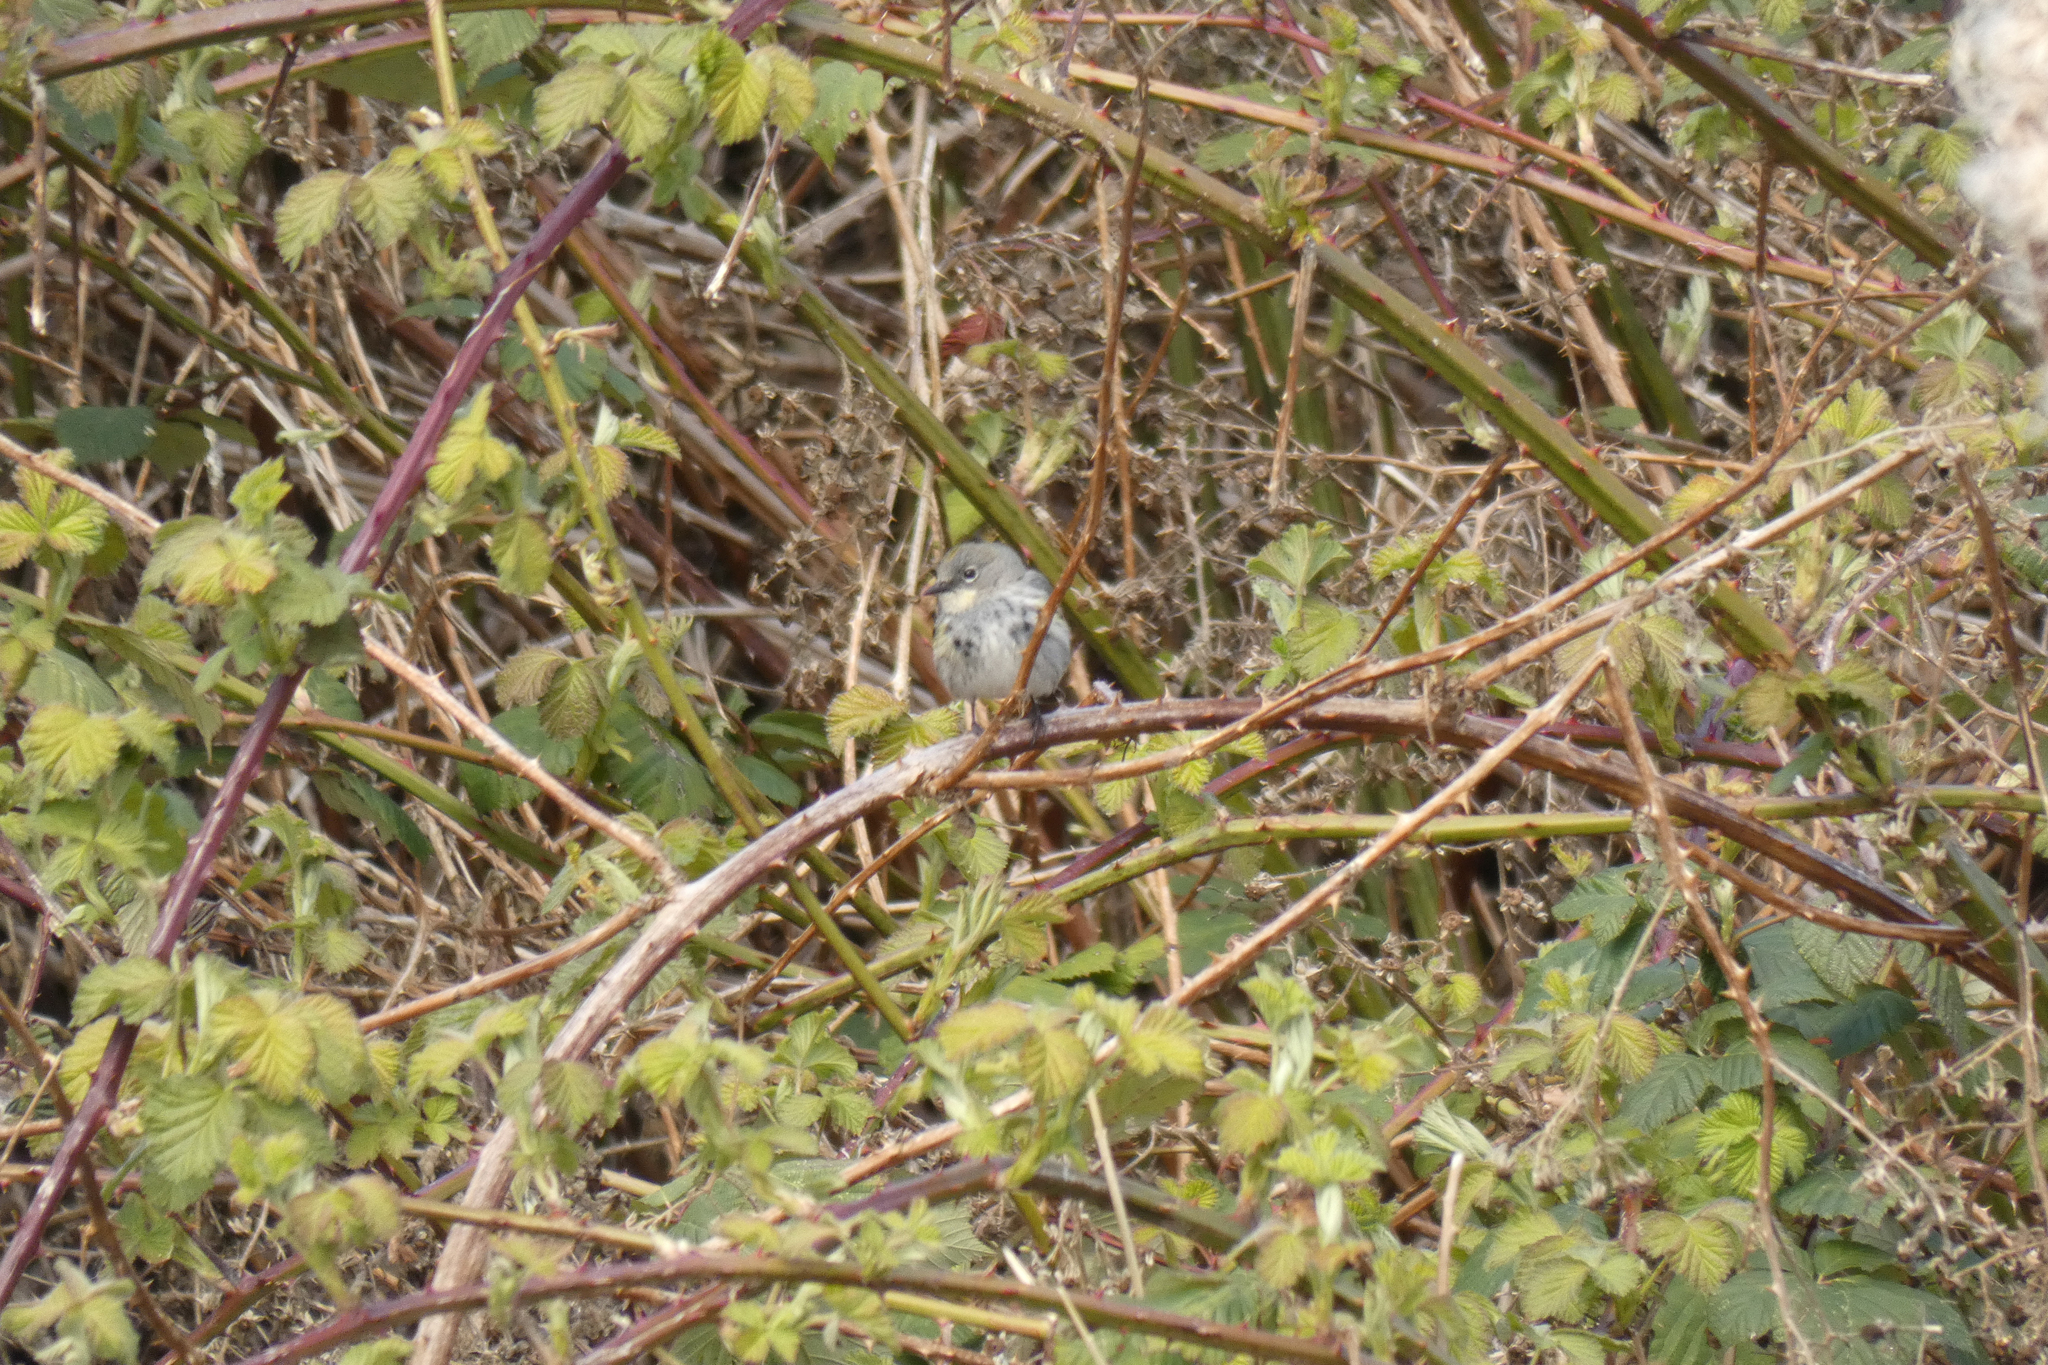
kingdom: Animalia
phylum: Chordata
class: Aves
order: Passeriformes
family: Parulidae
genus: Setophaga
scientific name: Setophaga coronata
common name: Myrtle warbler
